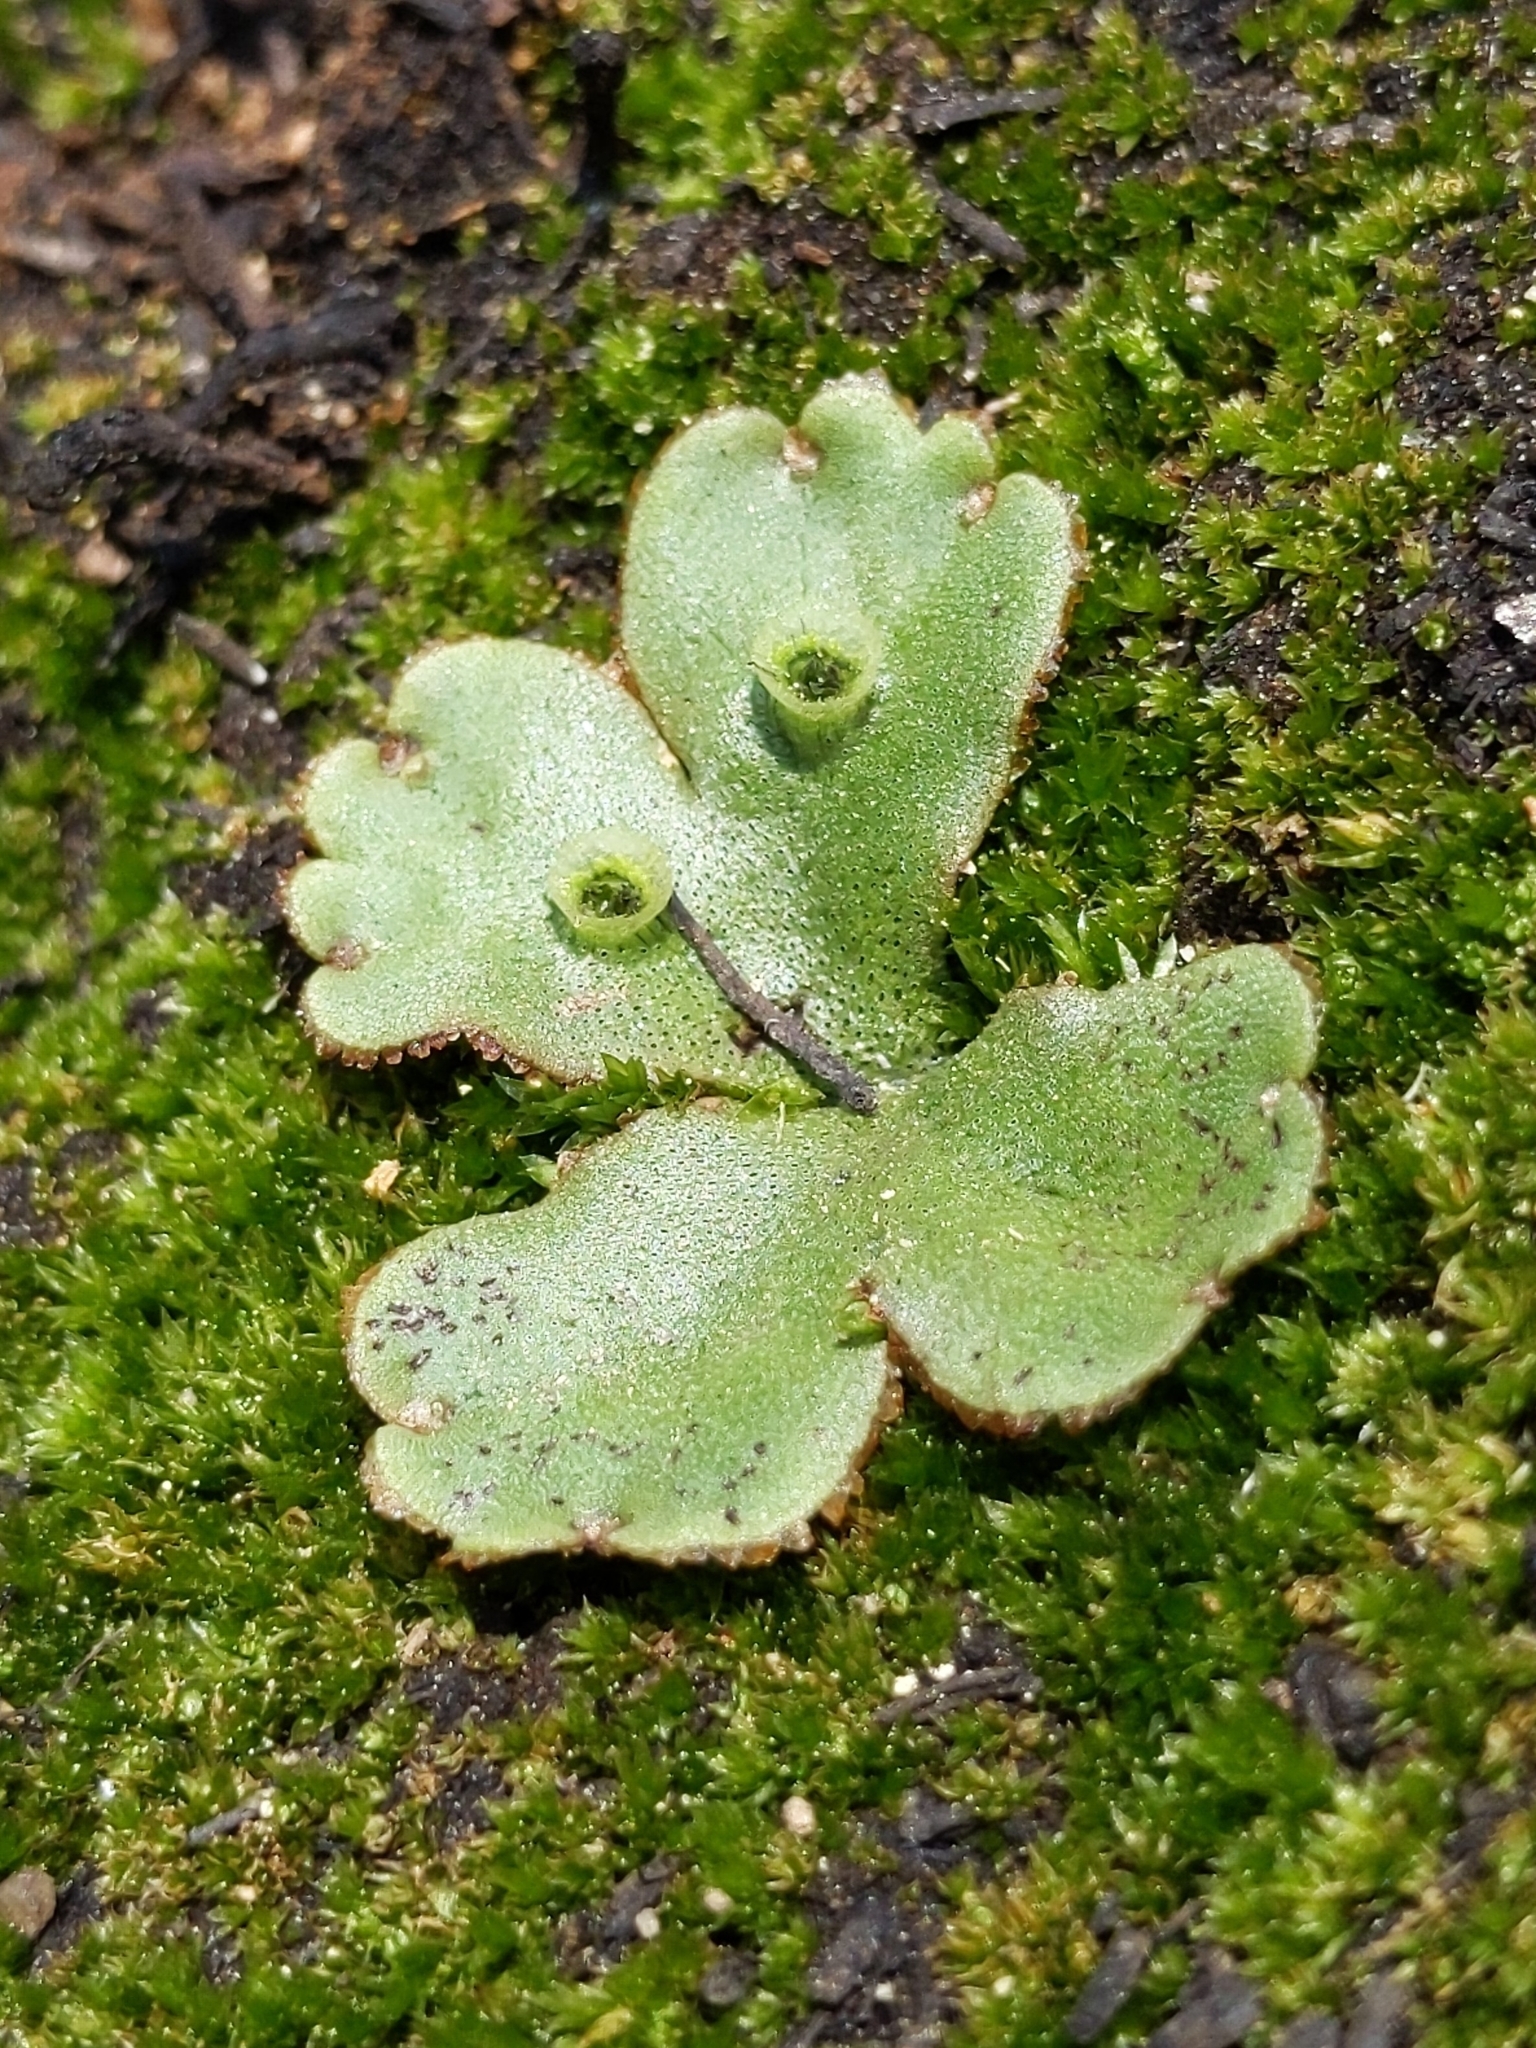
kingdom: Plantae
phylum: Marchantiophyta
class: Marchantiopsida
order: Marchantiales
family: Marchantiaceae
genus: Marchantia
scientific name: Marchantia polymorpha
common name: Common liverwort
